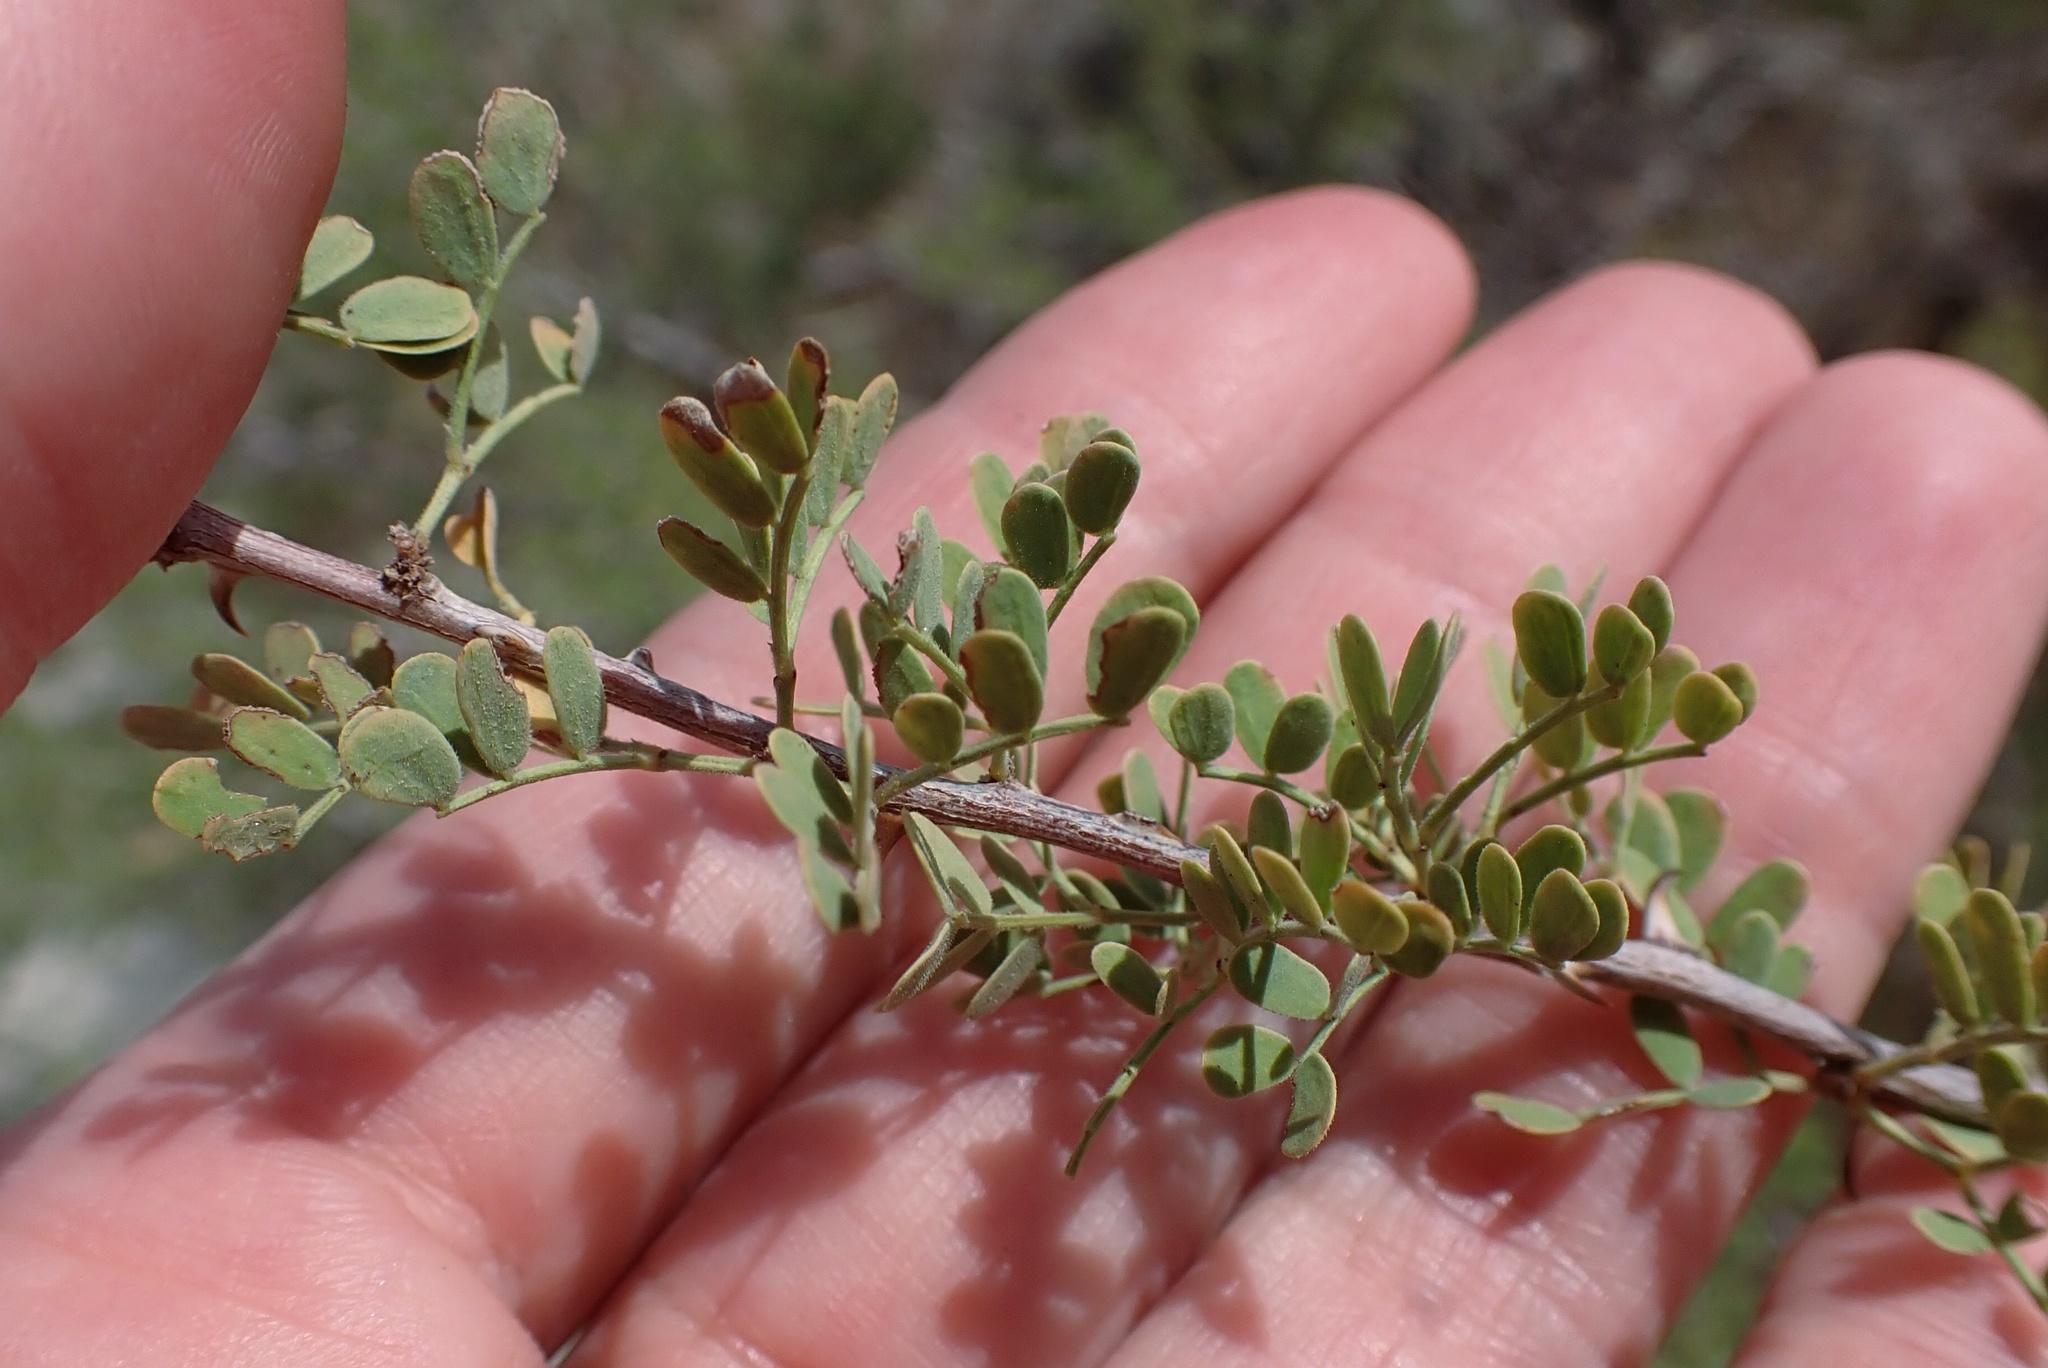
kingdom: Plantae
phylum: Tracheophyta
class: Magnoliopsida
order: Fabales
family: Fabaceae
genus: Senegalia
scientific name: Senegalia greggii
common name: Texas-mimosa
